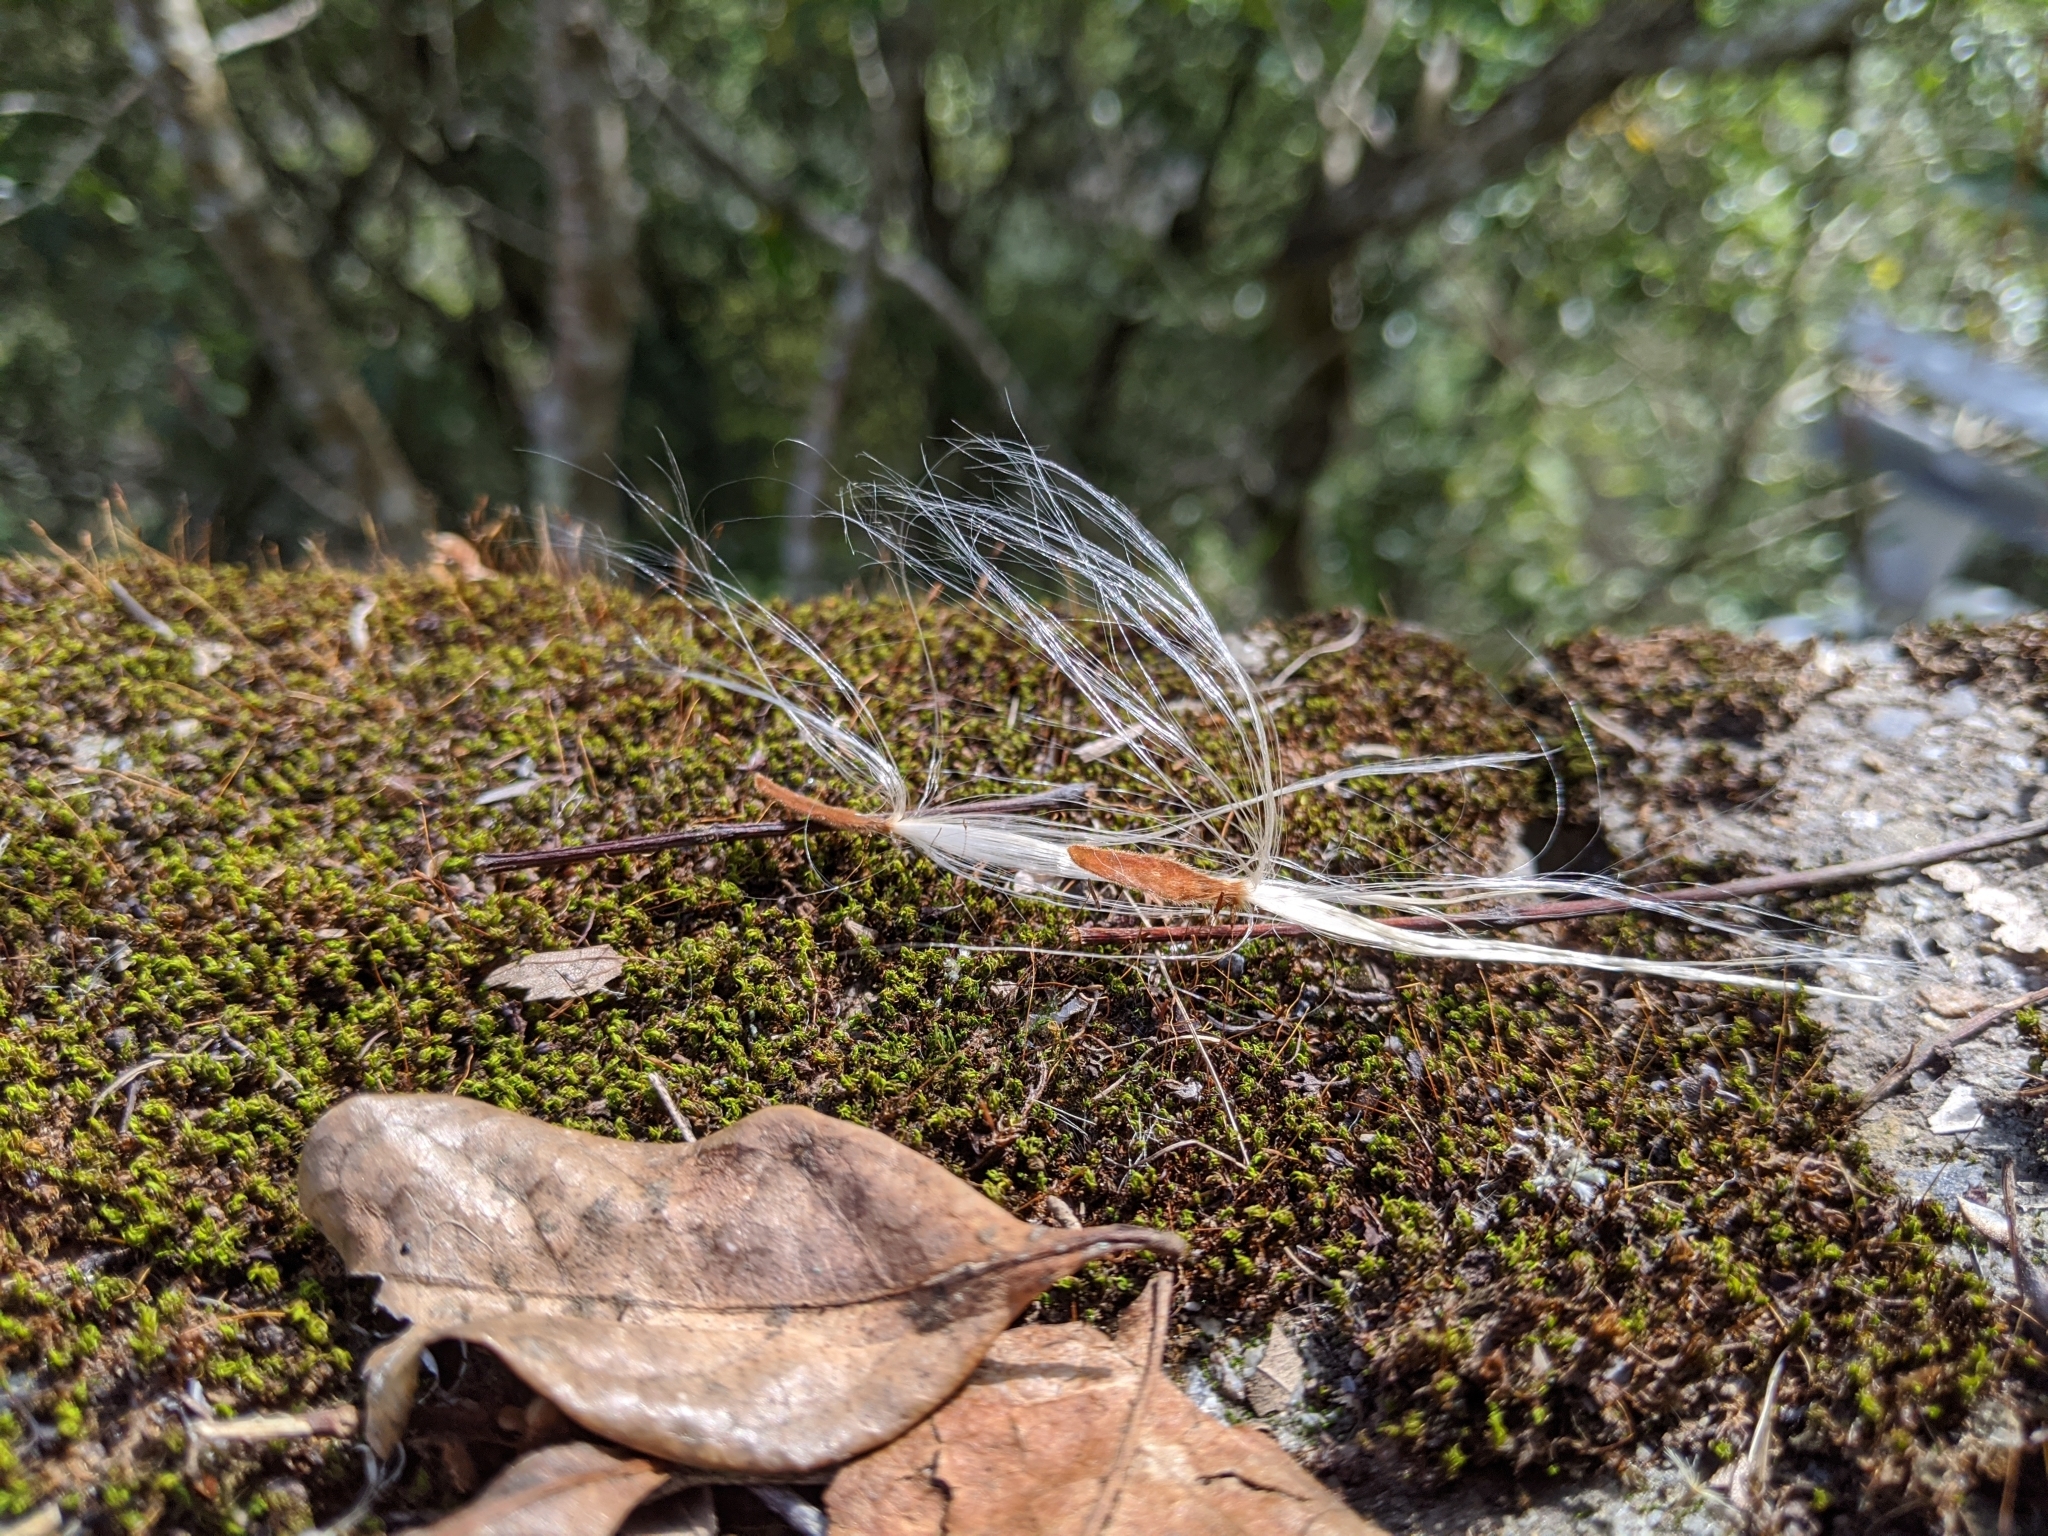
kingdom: Plantae
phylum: Tracheophyta
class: Magnoliopsida
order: Gentianales
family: Apocynaceae
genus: Urceola
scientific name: Urceola rosea
